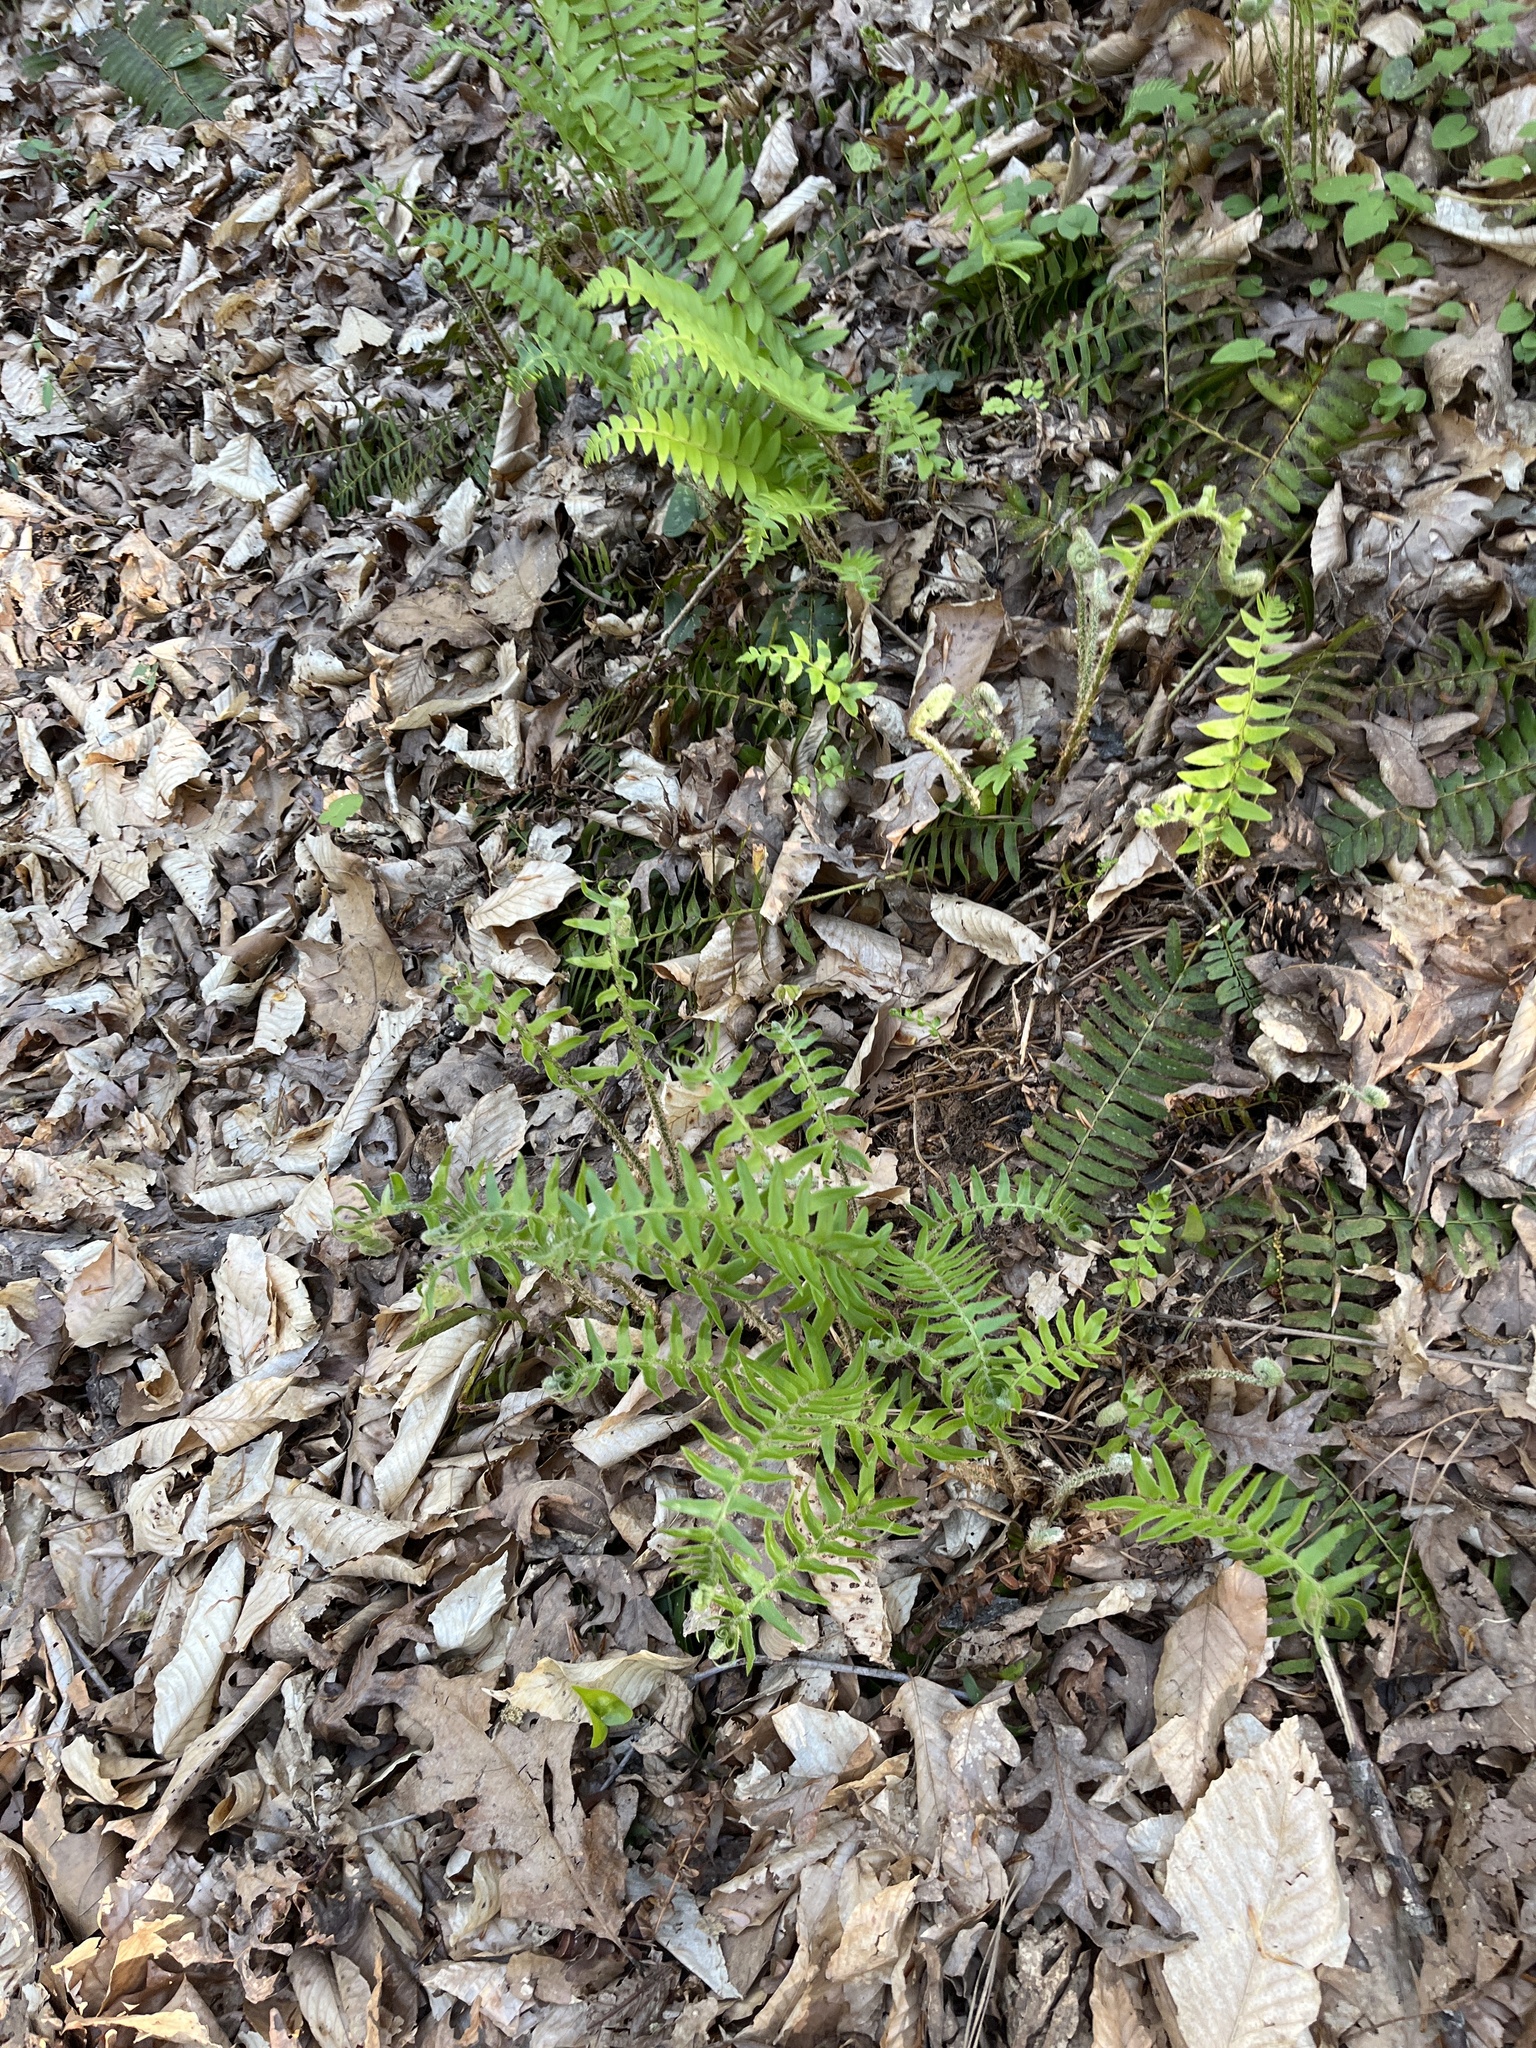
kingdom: Plantae
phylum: Tracheophyta
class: Polypodiopsida
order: Polypodiales
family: Dryopteridaceae
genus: Polystichum
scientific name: Polystichum acrostichoides
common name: Christmas fern
